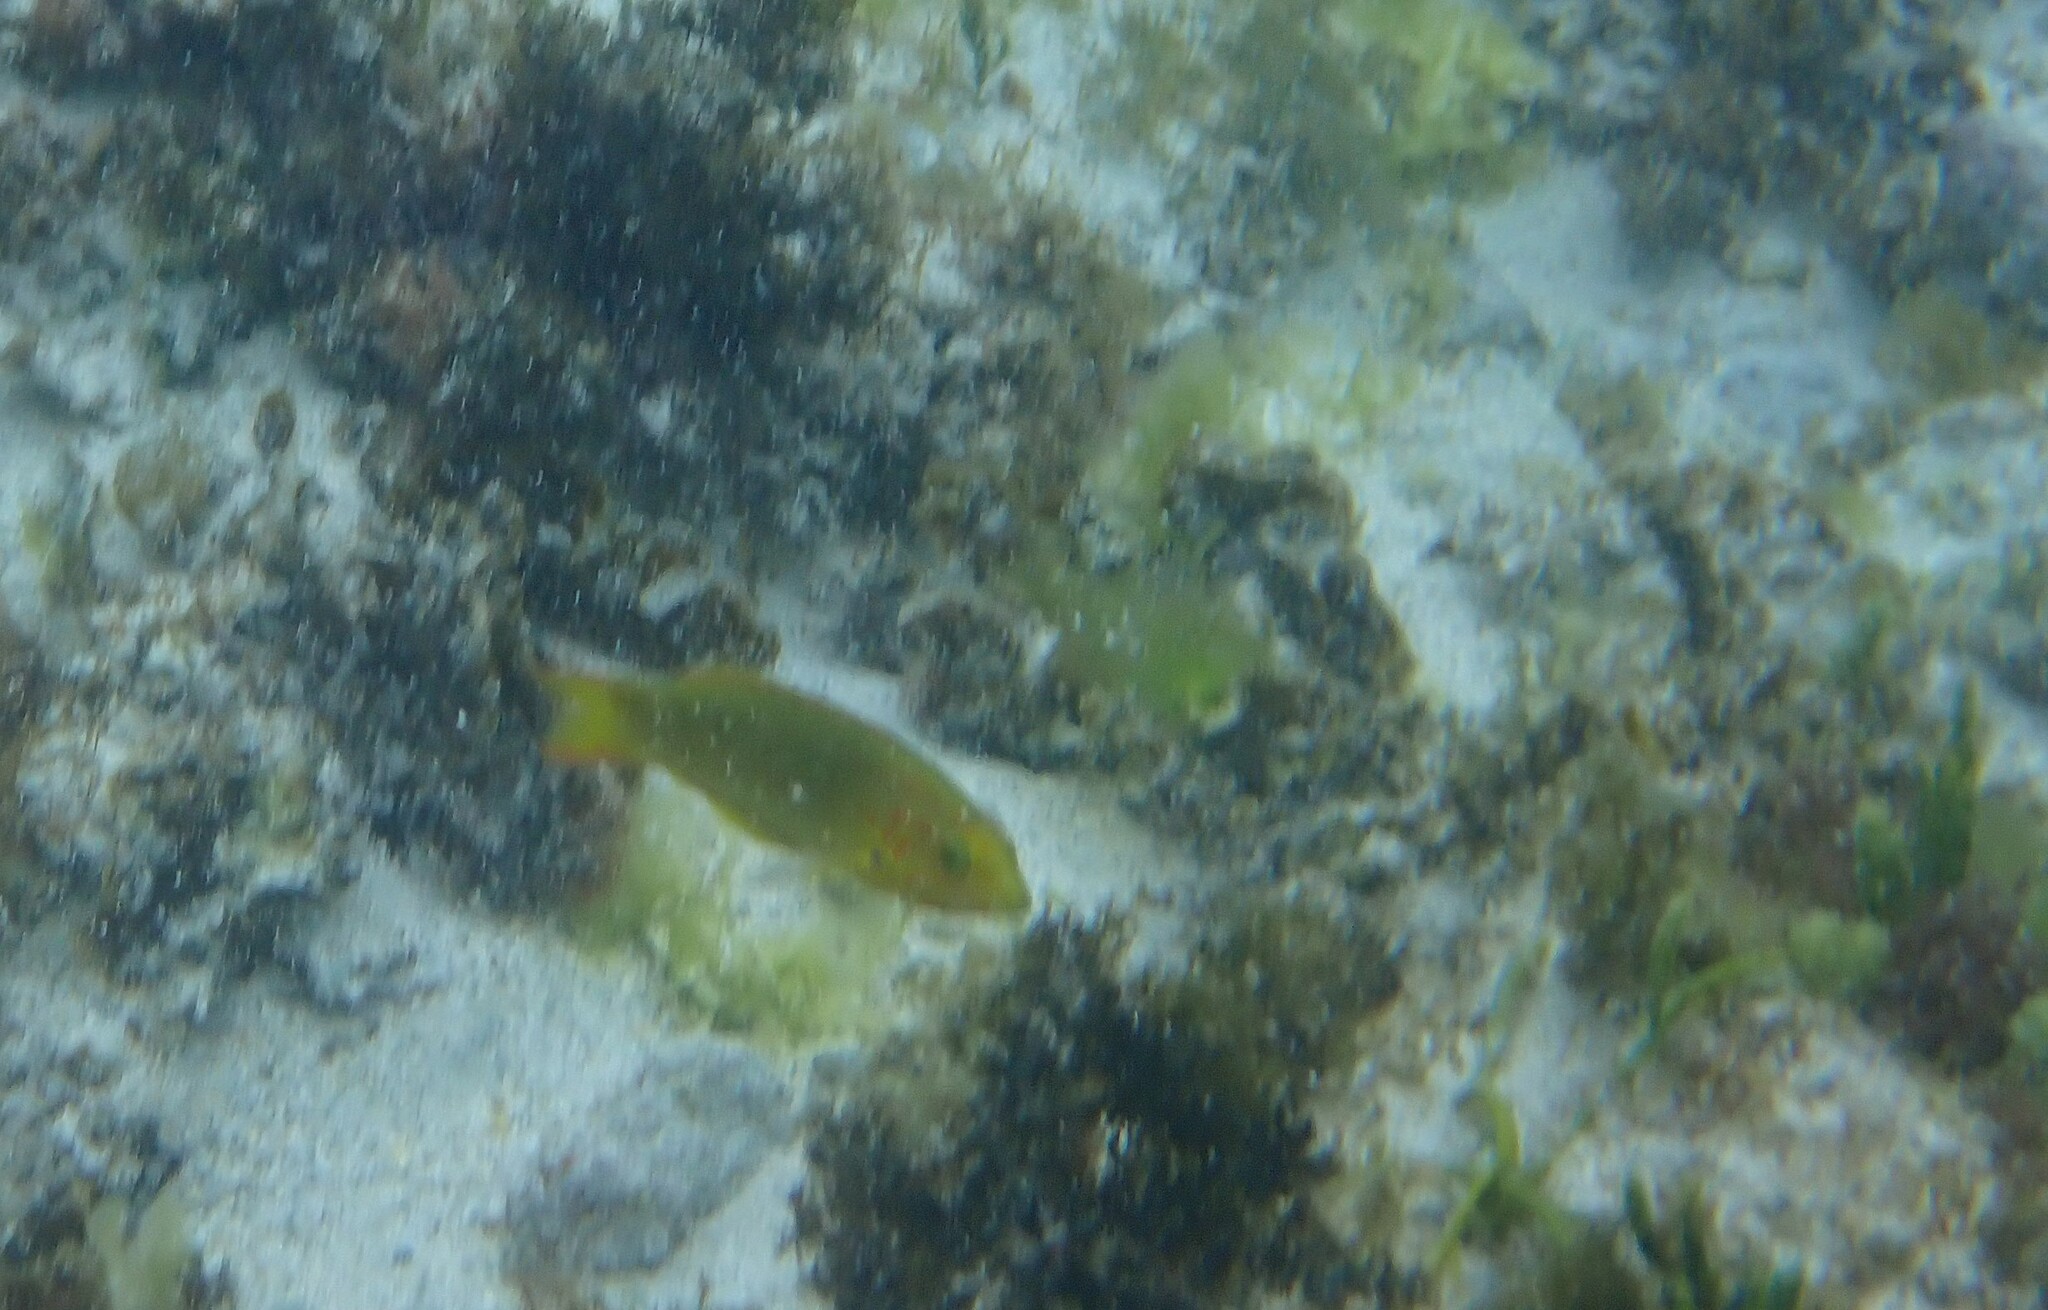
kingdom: Animalia
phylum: Chordata
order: Perciformes
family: Labridae
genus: Thalassoma
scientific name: Thalassoma lutescens
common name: Green moon wrasse
